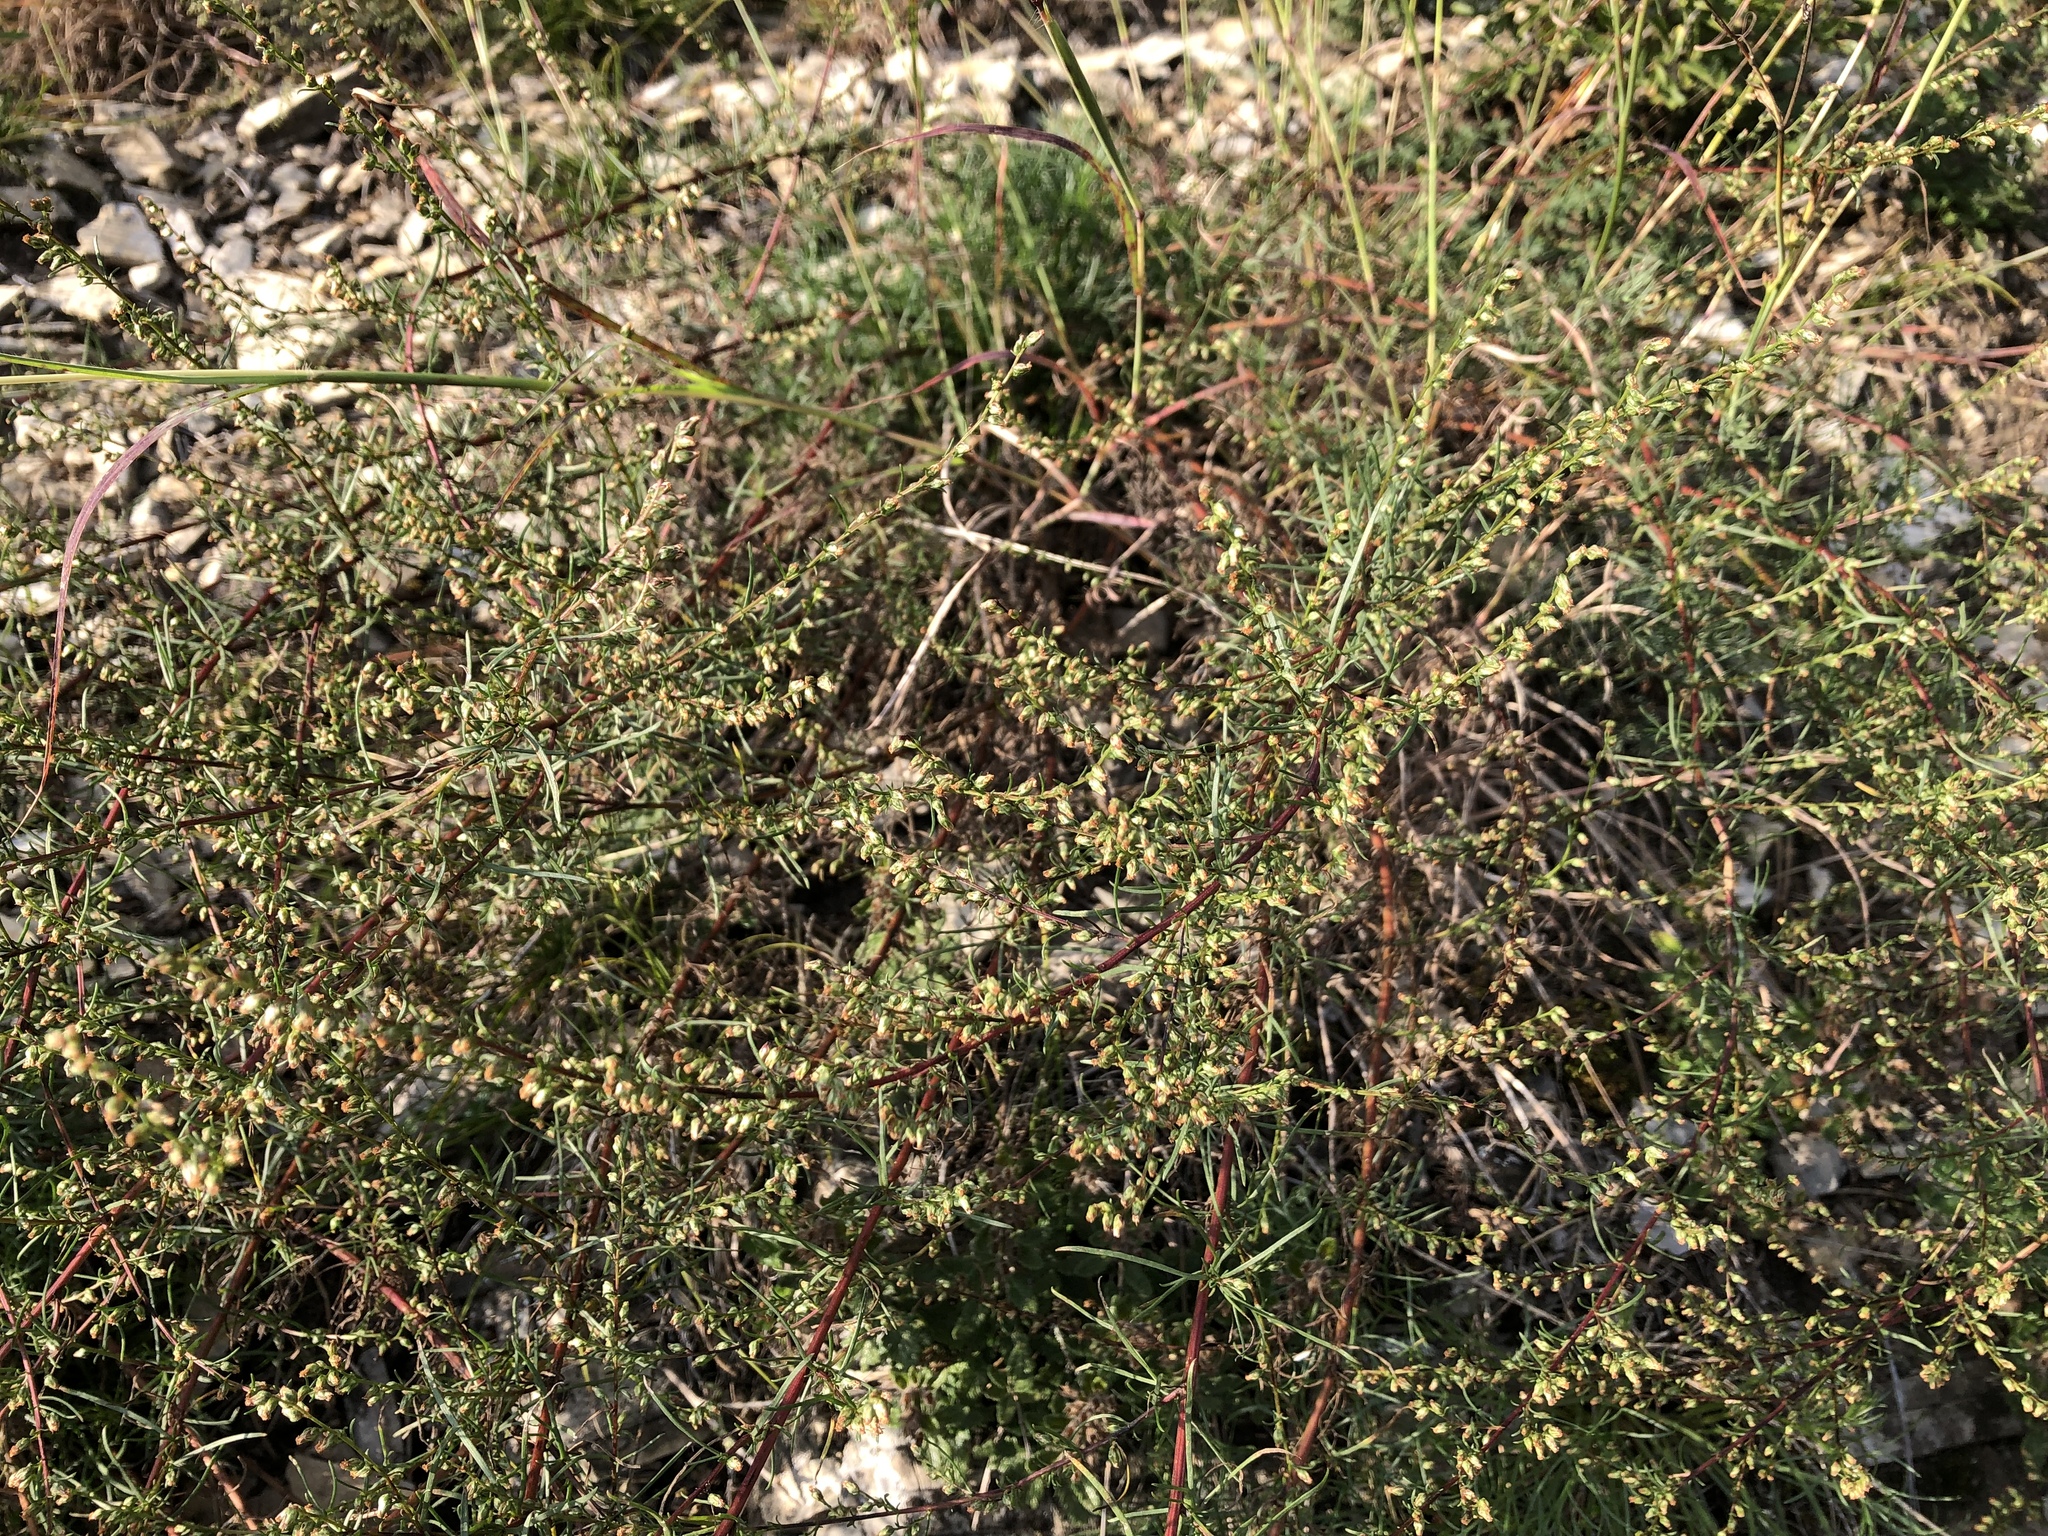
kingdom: Plantae
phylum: Tracheophyta
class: Magnoliopsida
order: Asterales
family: Asteraceae
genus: Artemisia
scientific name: Artemisia campestris
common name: Field wormwood
